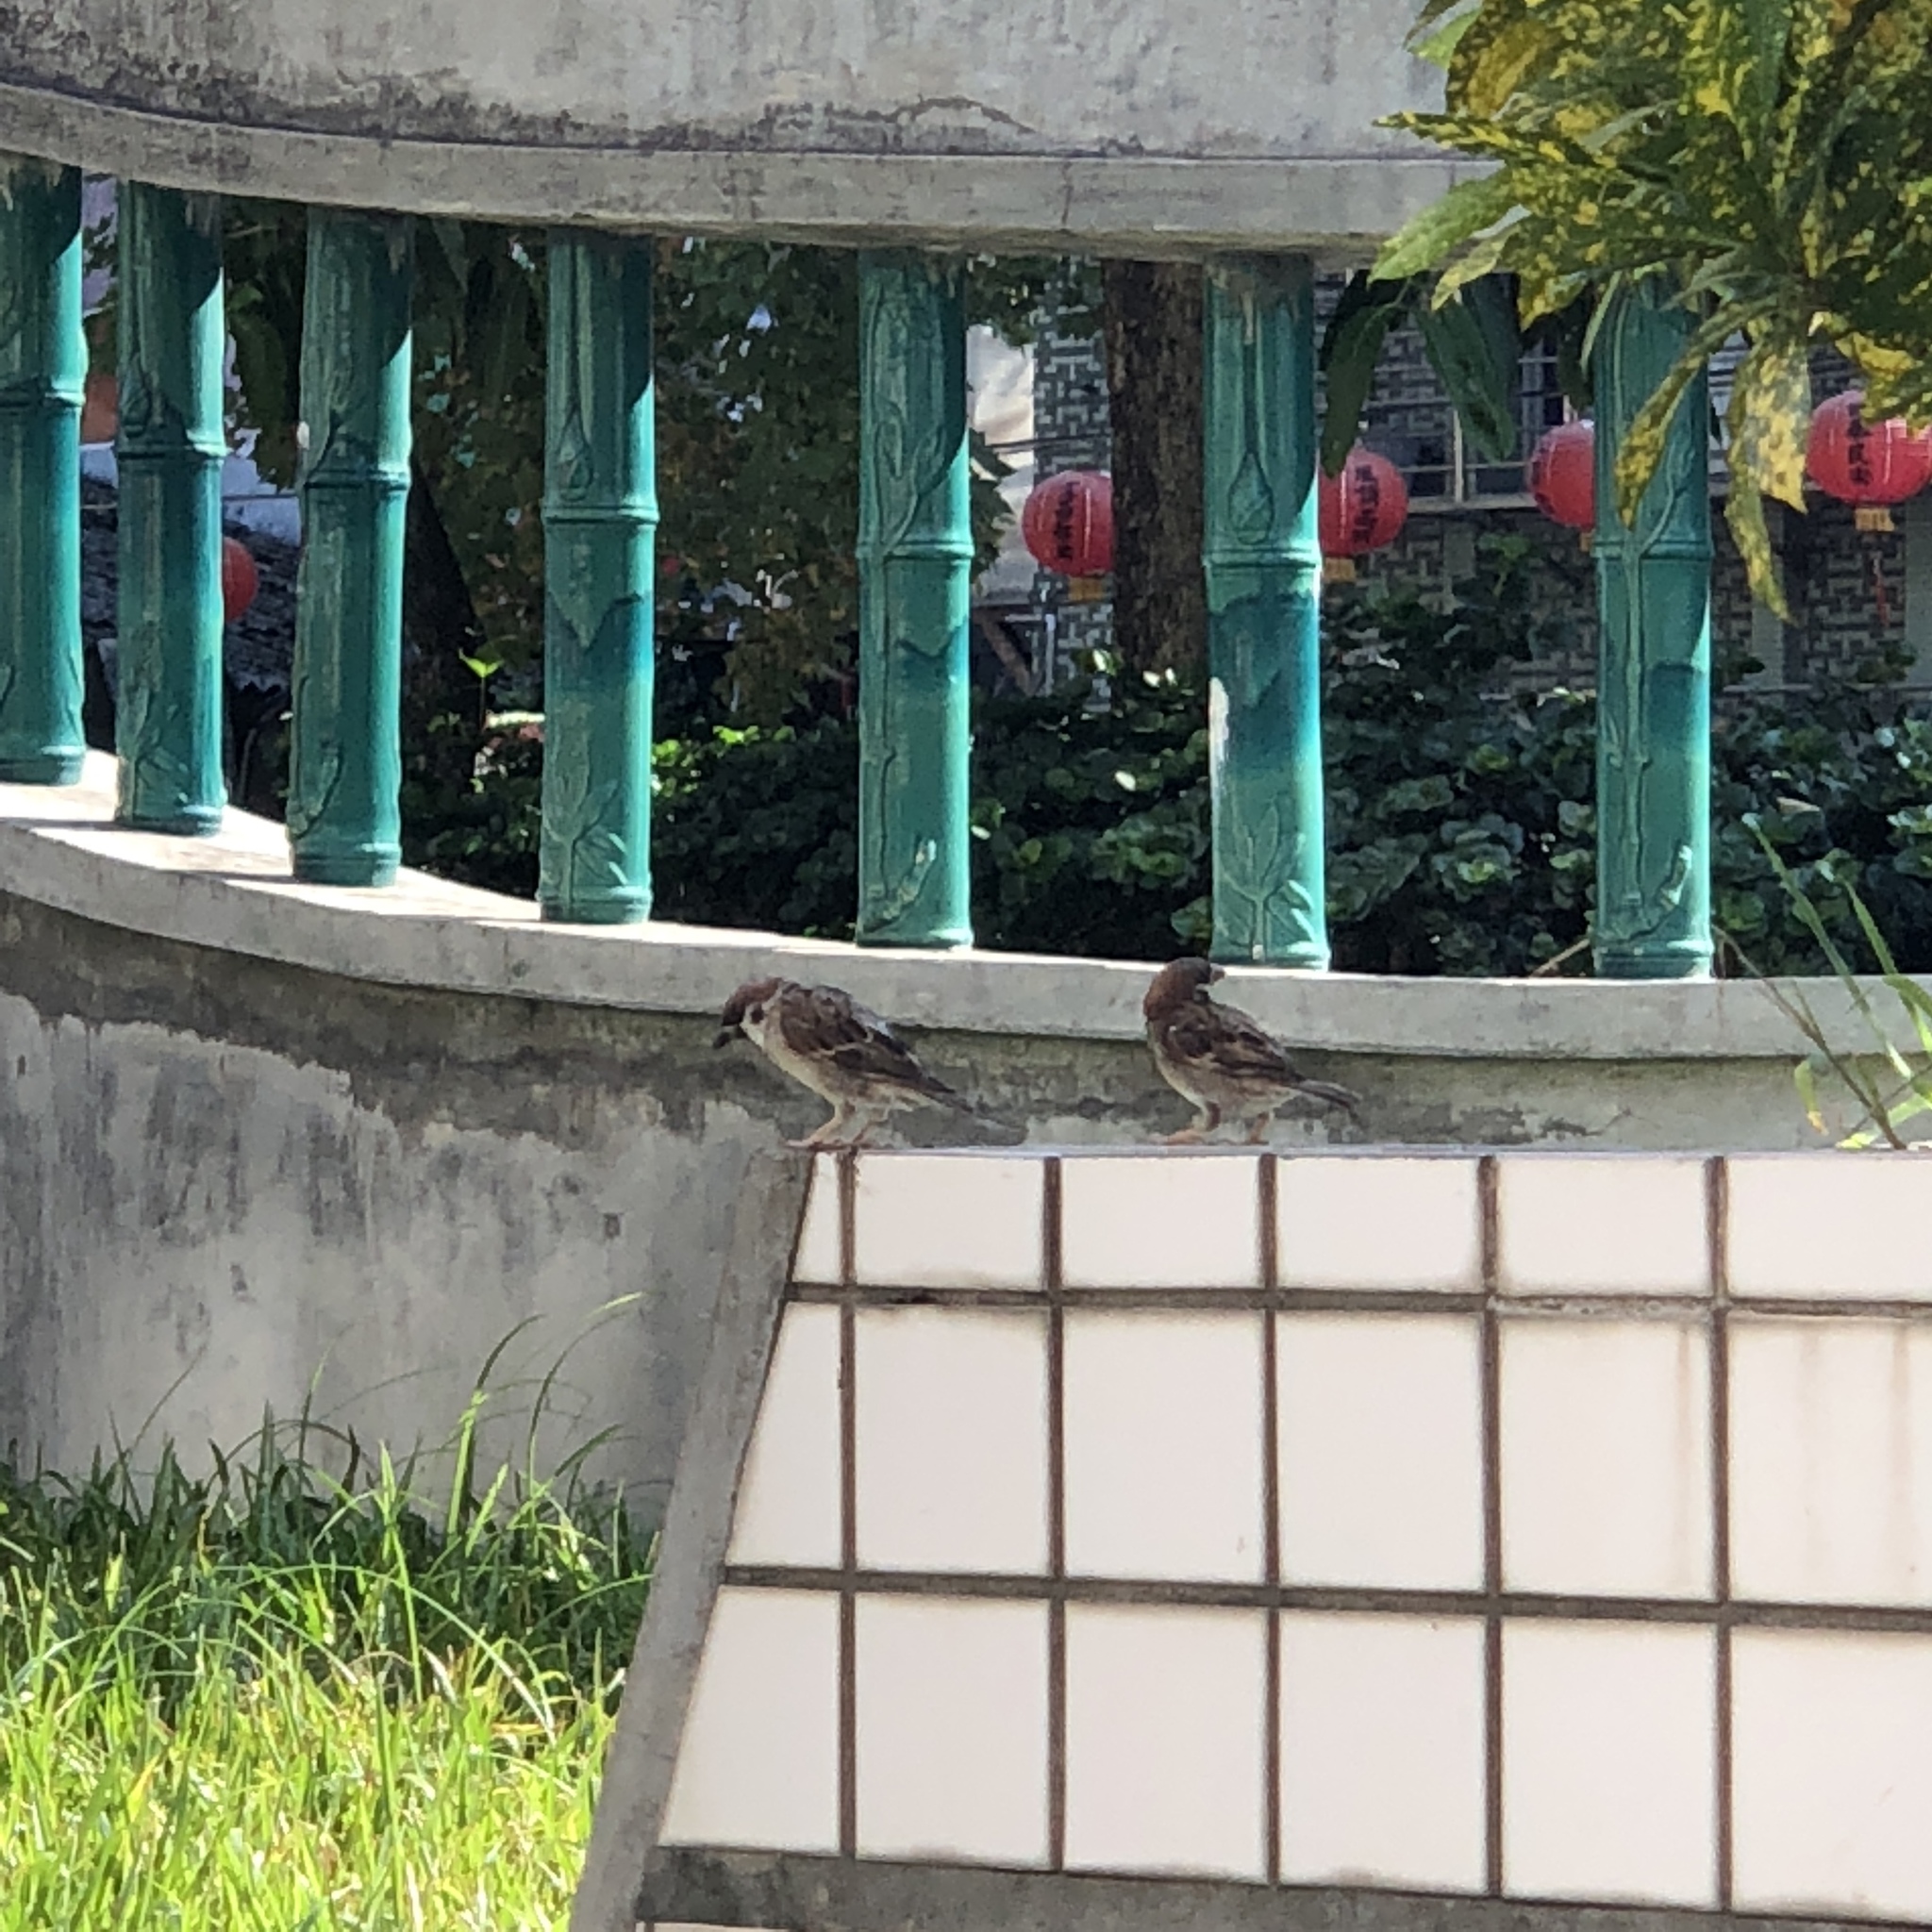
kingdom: Animalia
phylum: Chordata
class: Aves
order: Passeriformes
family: Passeridae
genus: Passer
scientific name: Passer montanus
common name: Eurasian tree sparrow
